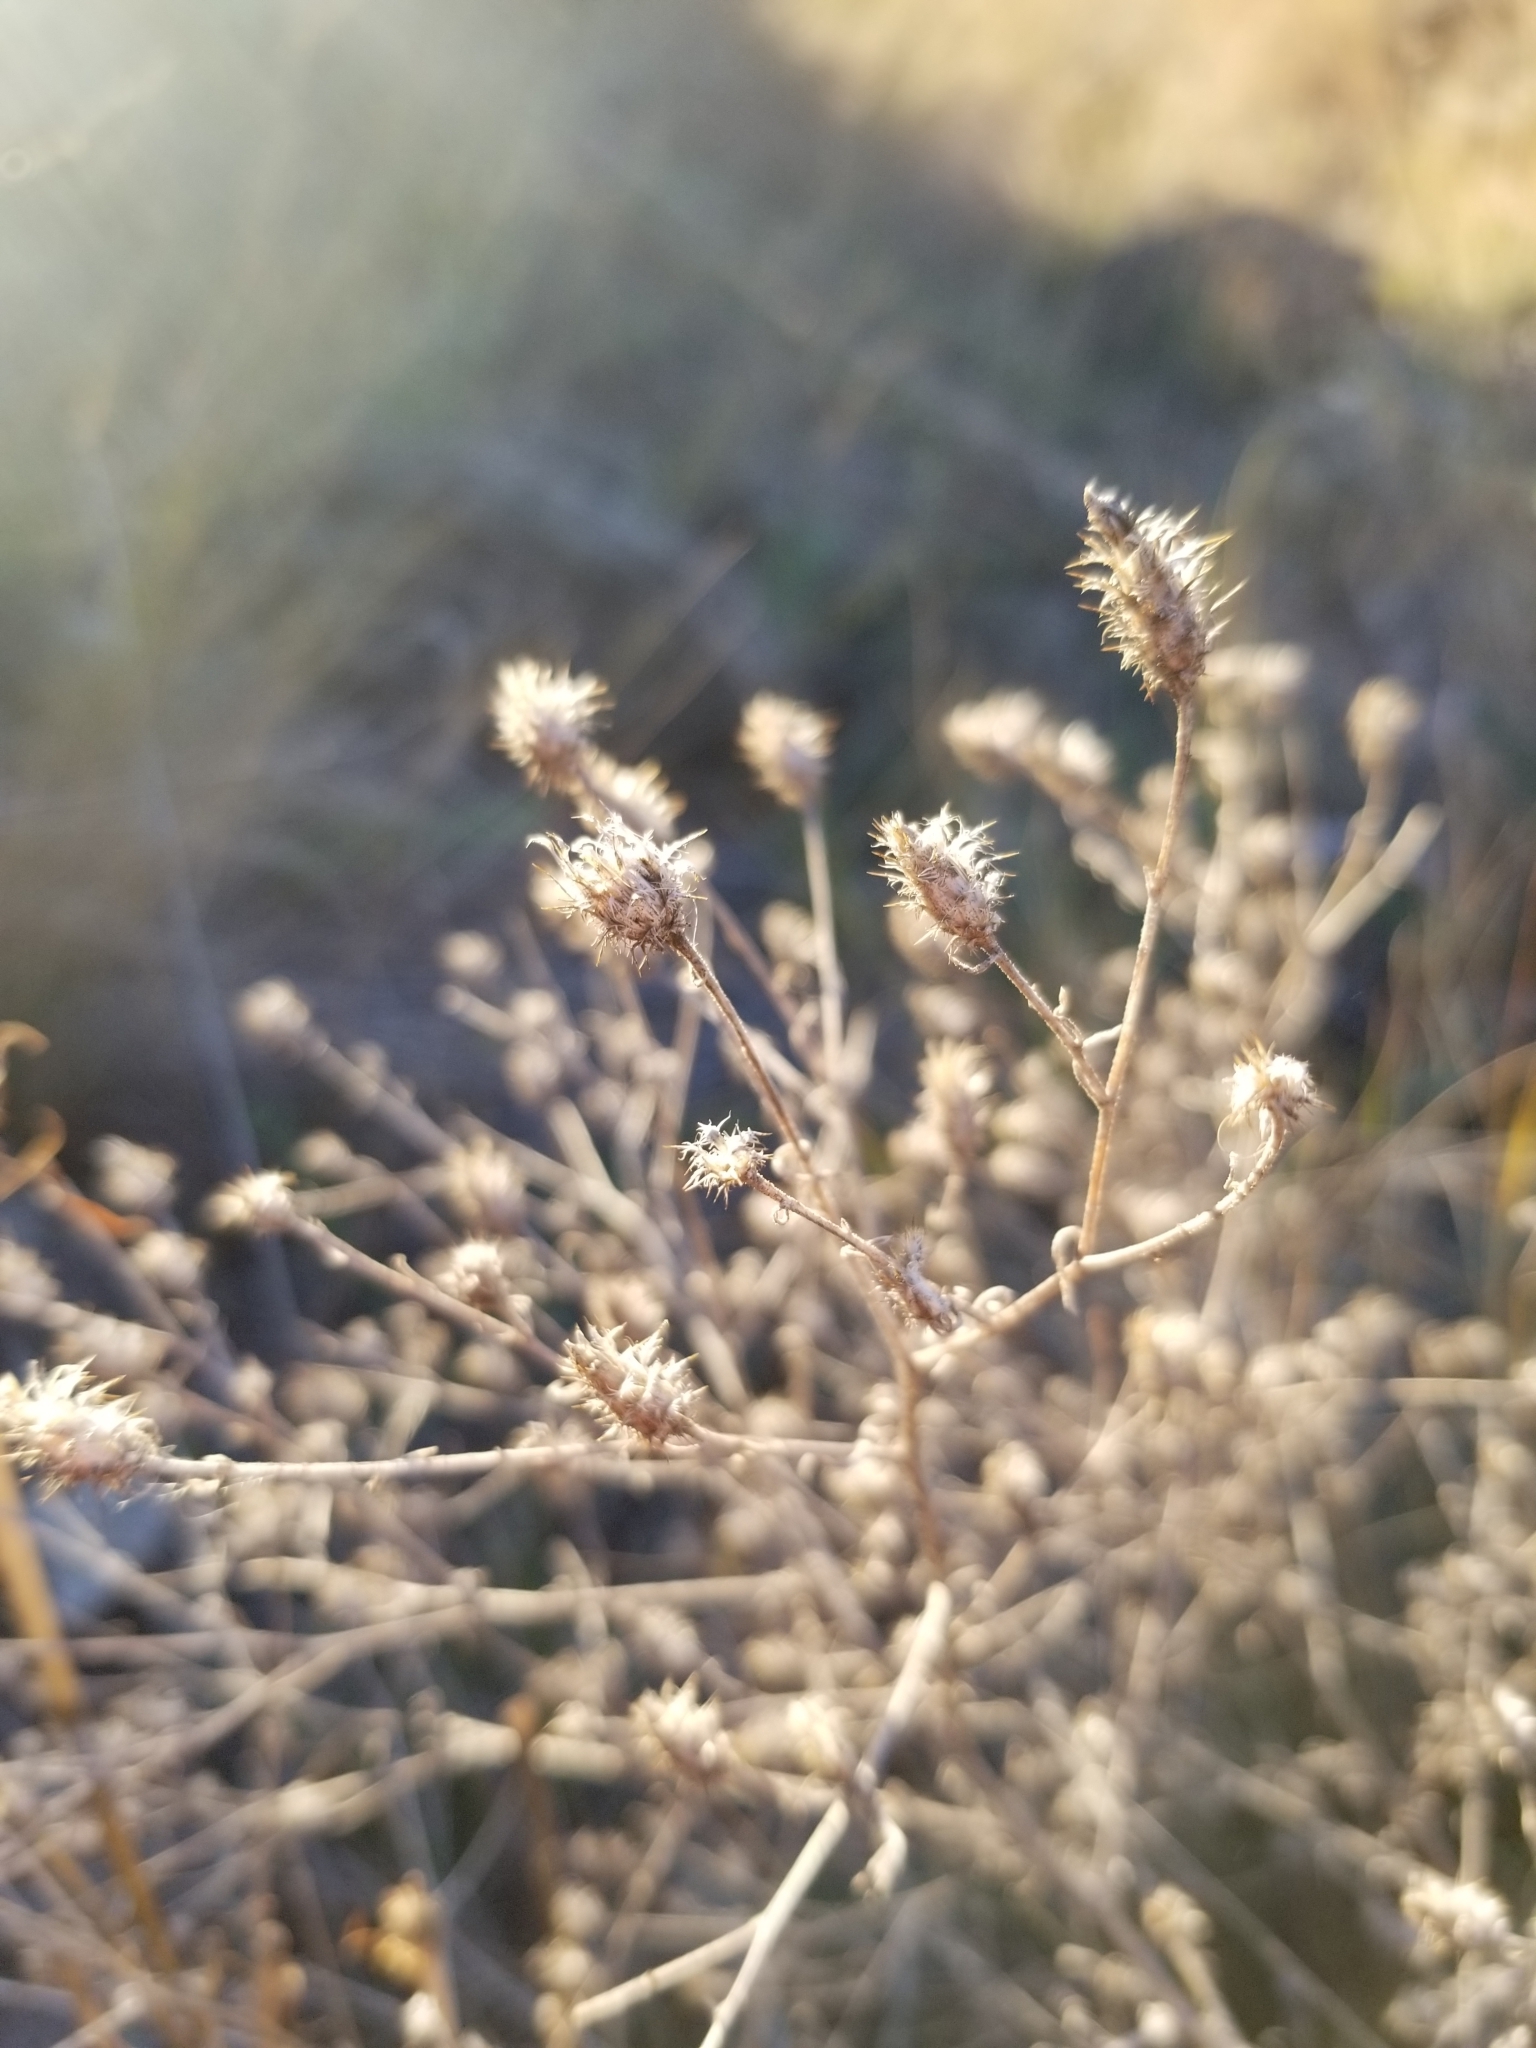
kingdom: Plantae
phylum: Tracheophyta
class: Magnoliopsida
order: Asterales
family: Asteraceae
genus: Centaurea
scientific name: Centaurea diffusa
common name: Diffuse knapweed
